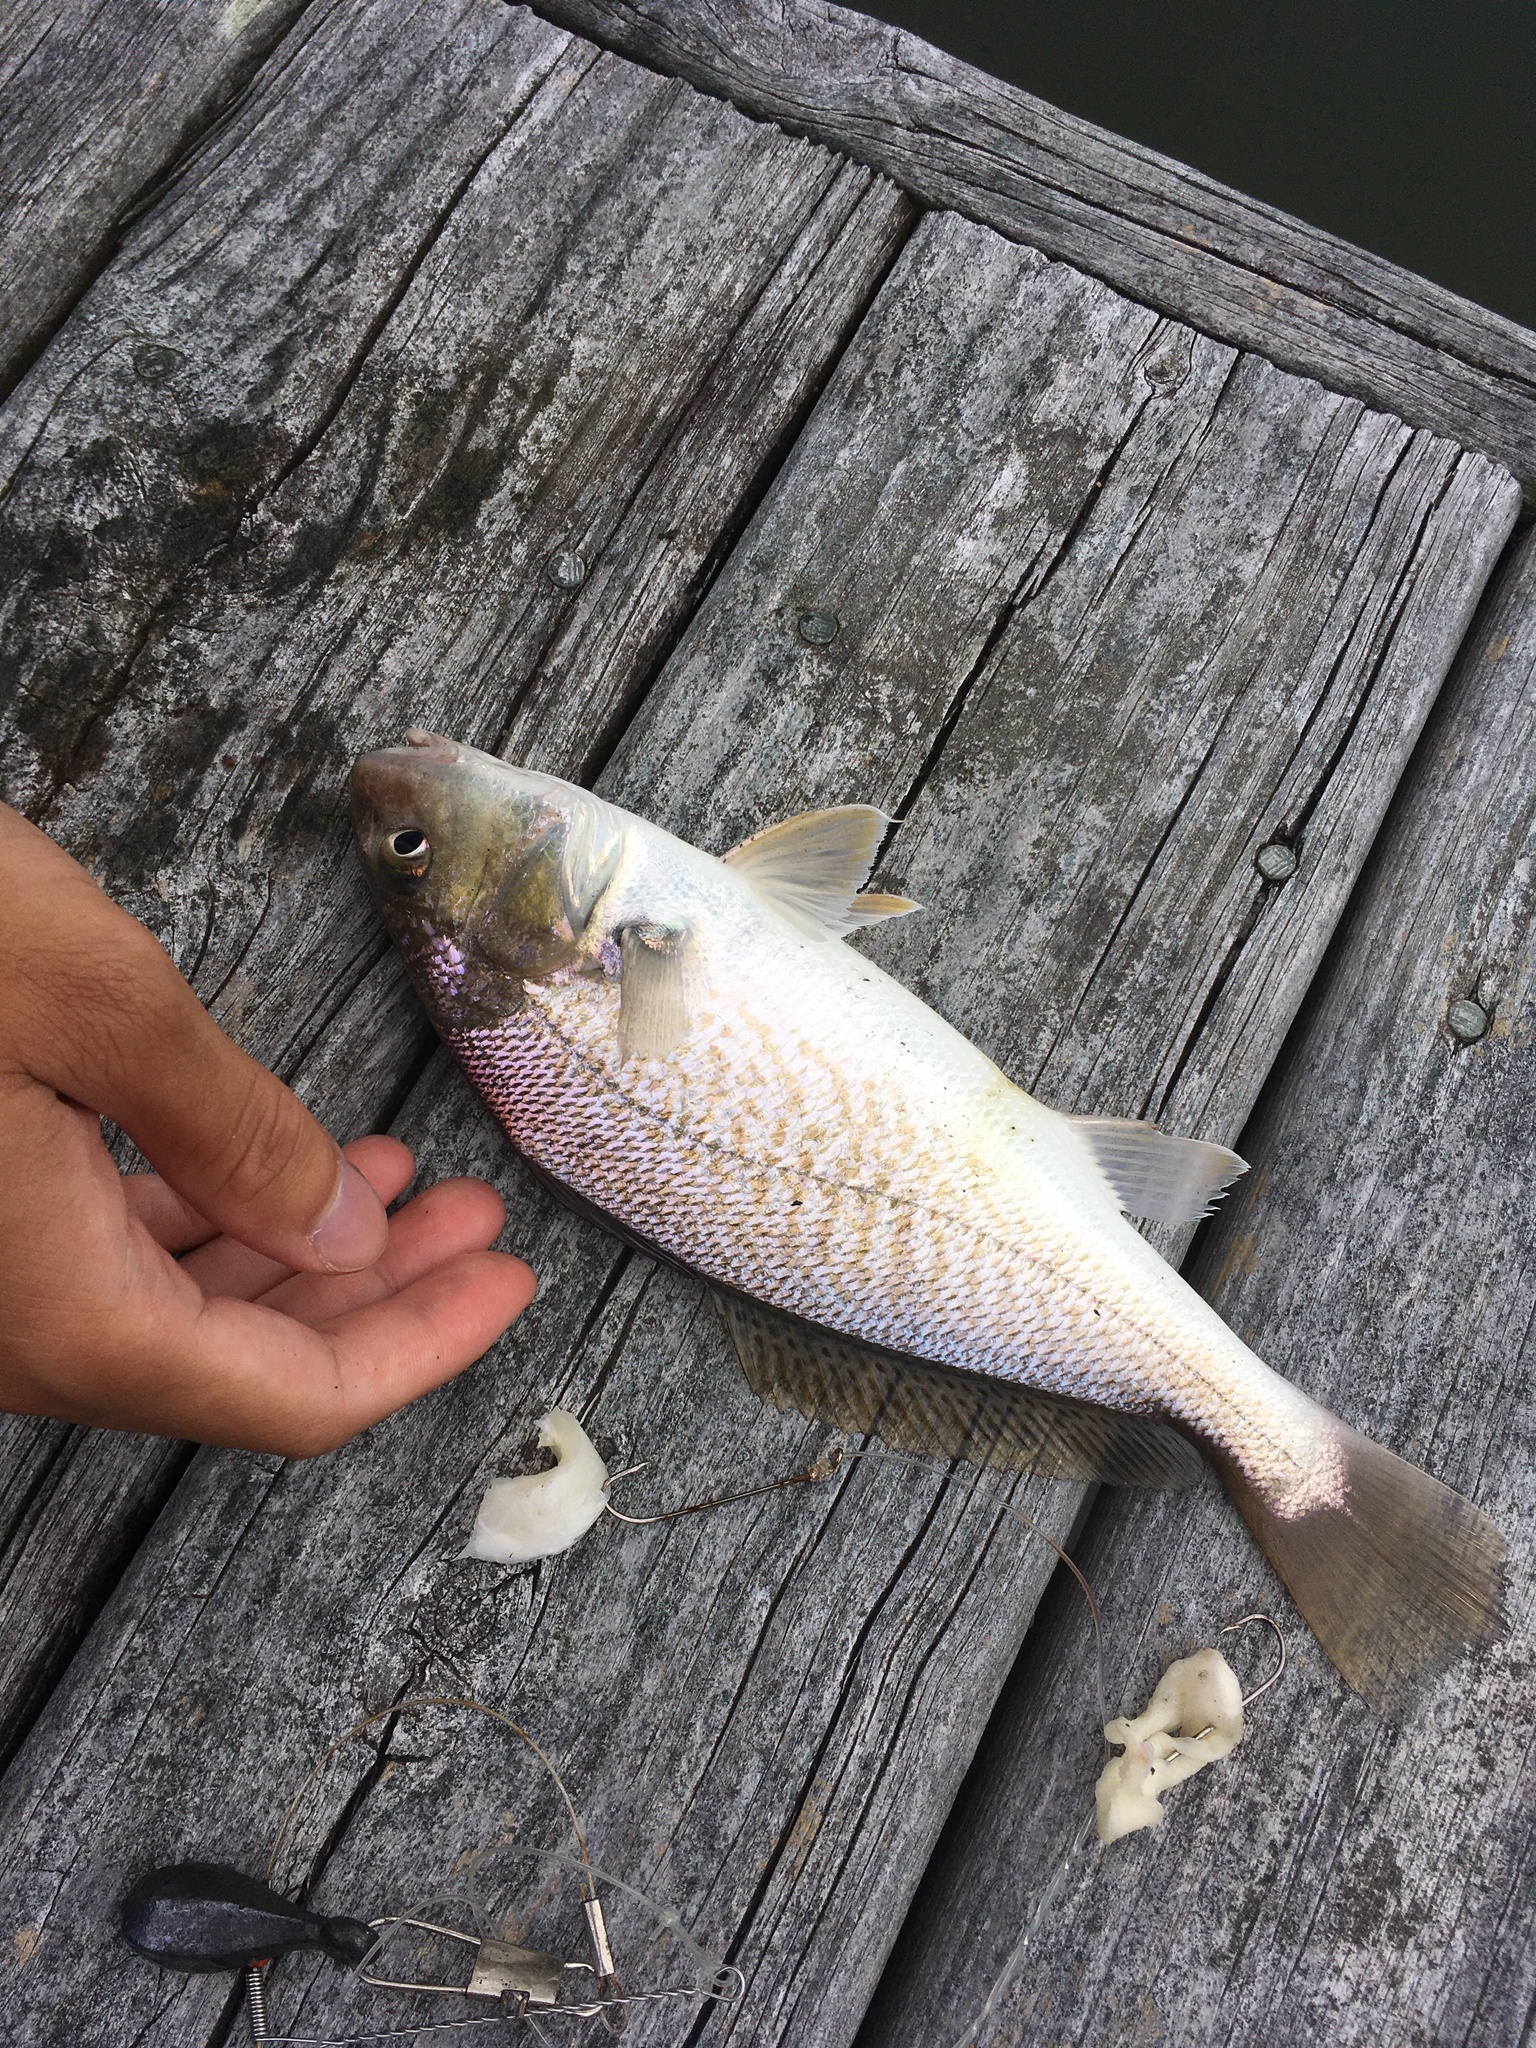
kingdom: Animalia
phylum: Chordata
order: Perciformes
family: Sciaenidae
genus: Micropogonias
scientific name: Micropogonias undulatus
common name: Atlantic croaker
